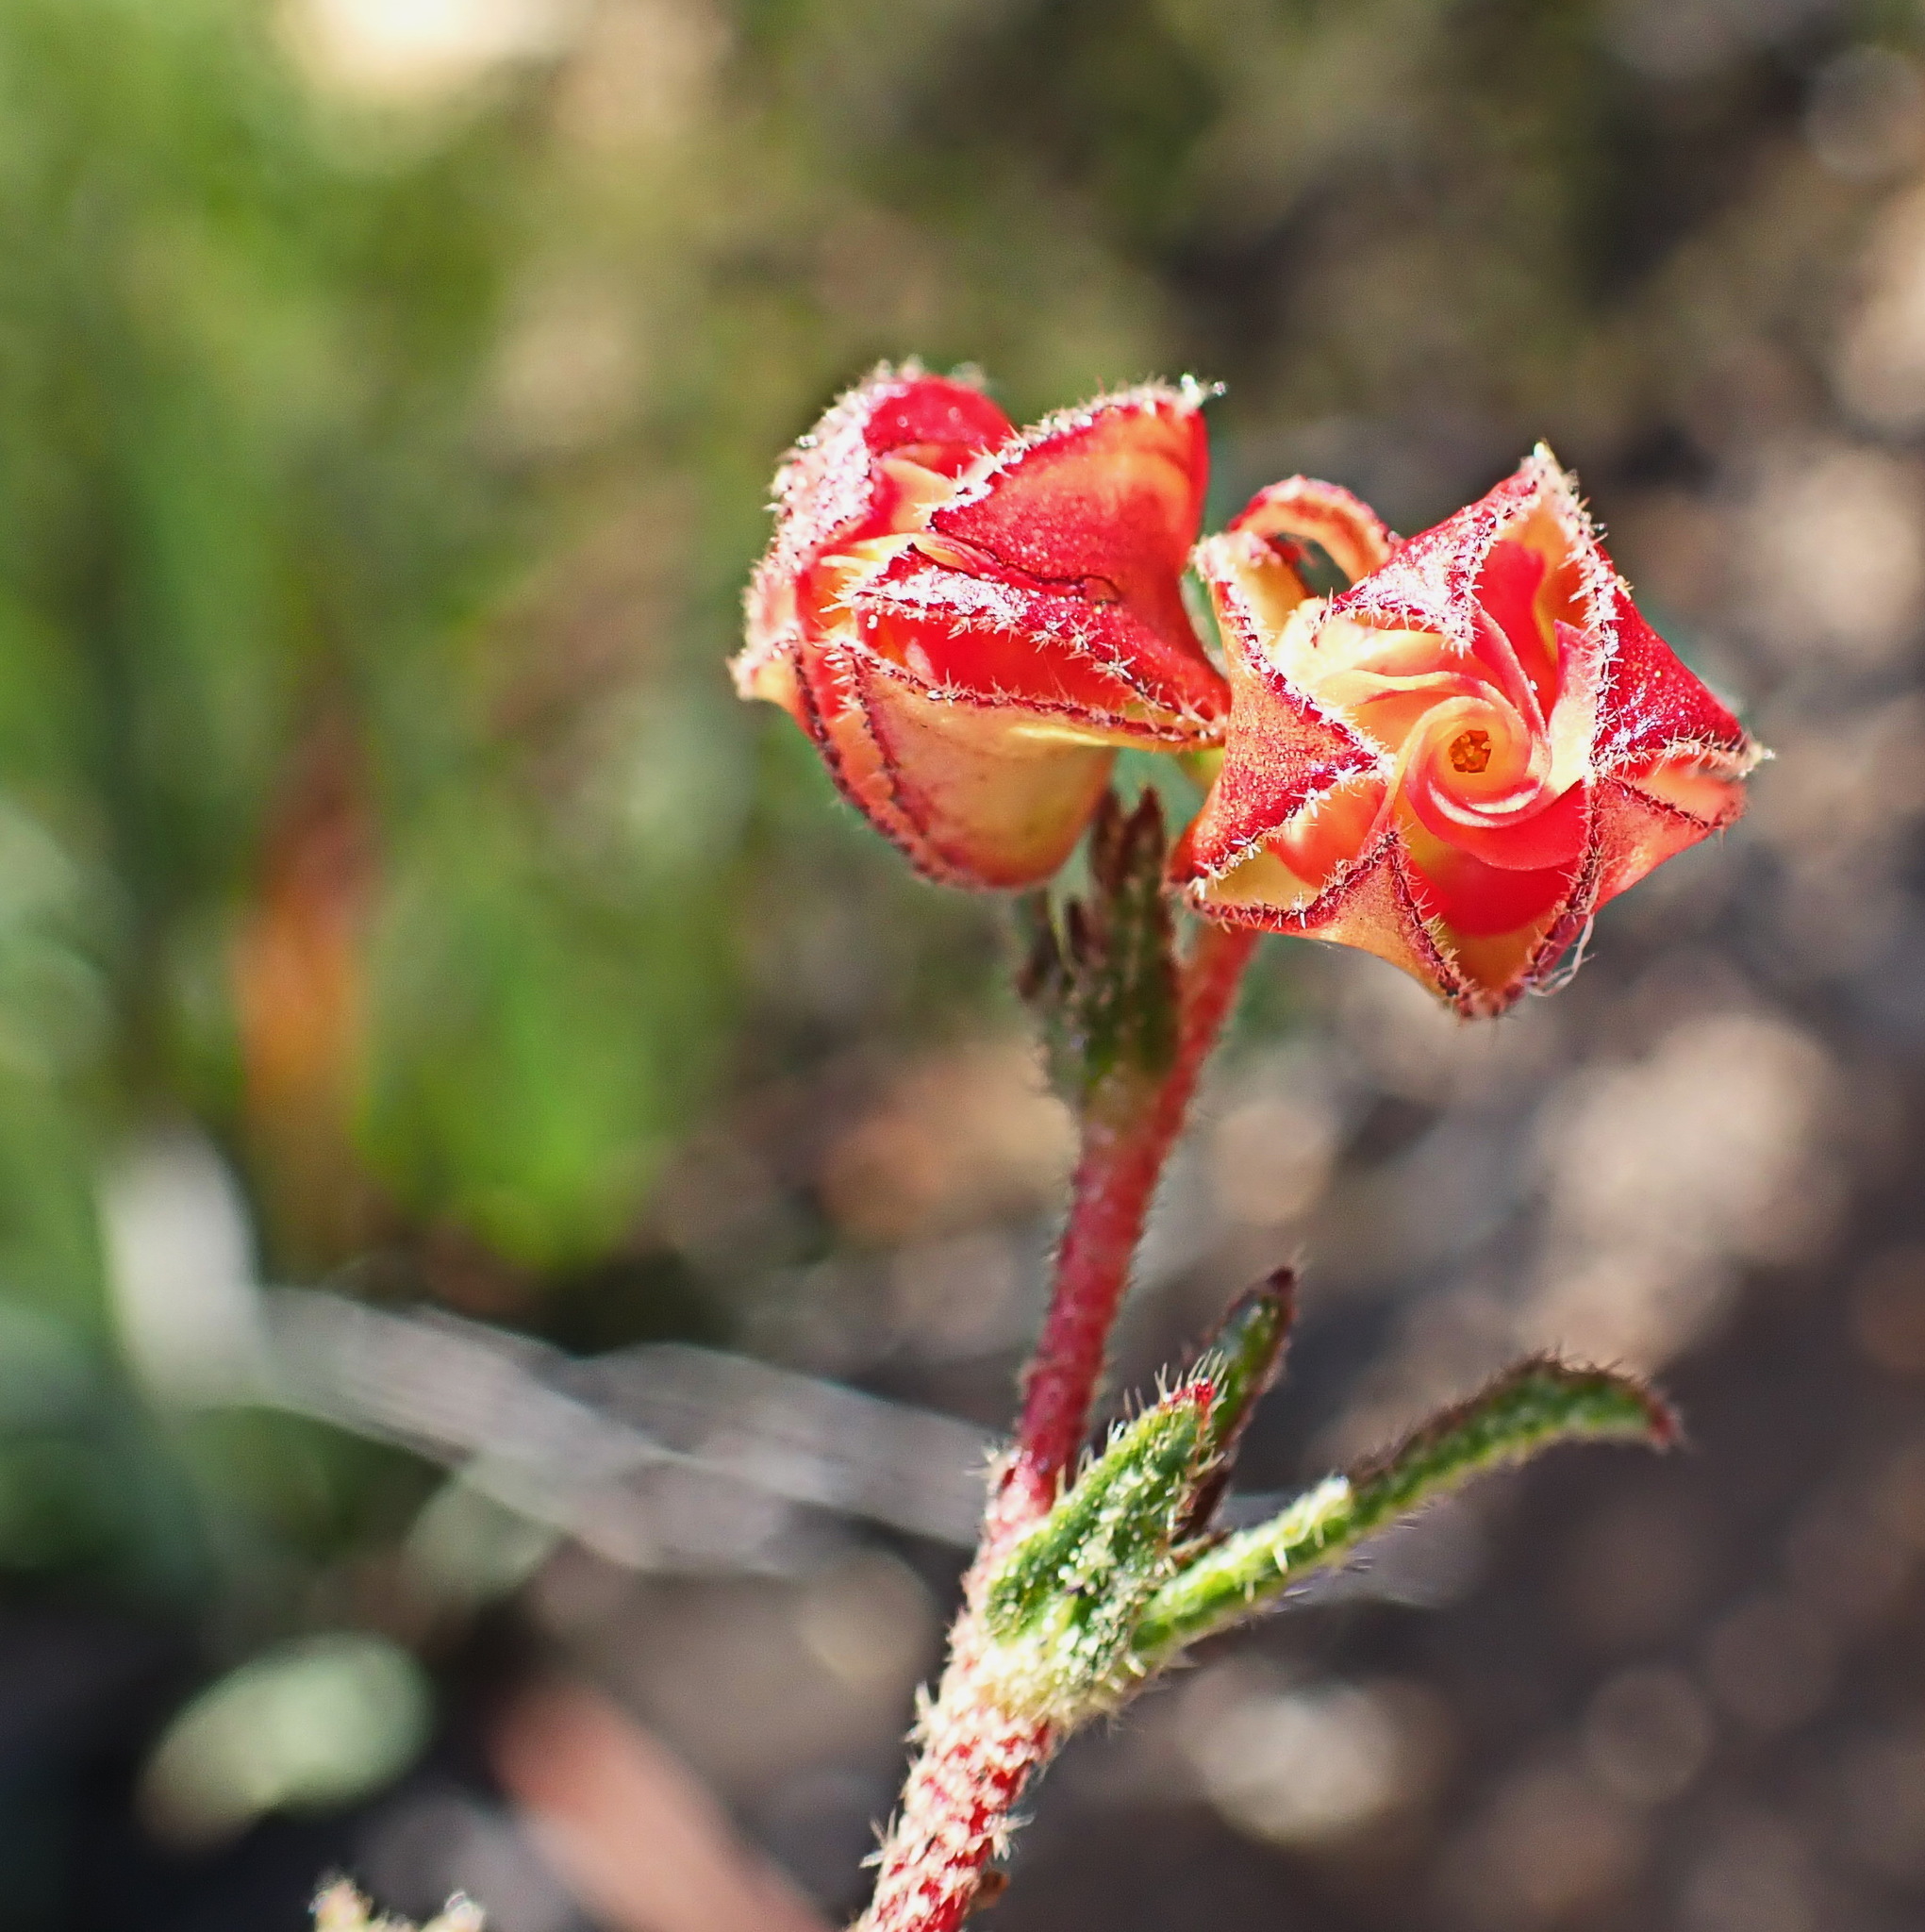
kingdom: Plantae
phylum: Tracheophyta
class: Magnoliopsida
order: Malvales
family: Malvaceae
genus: Hermannia
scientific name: Hermannia angularis
